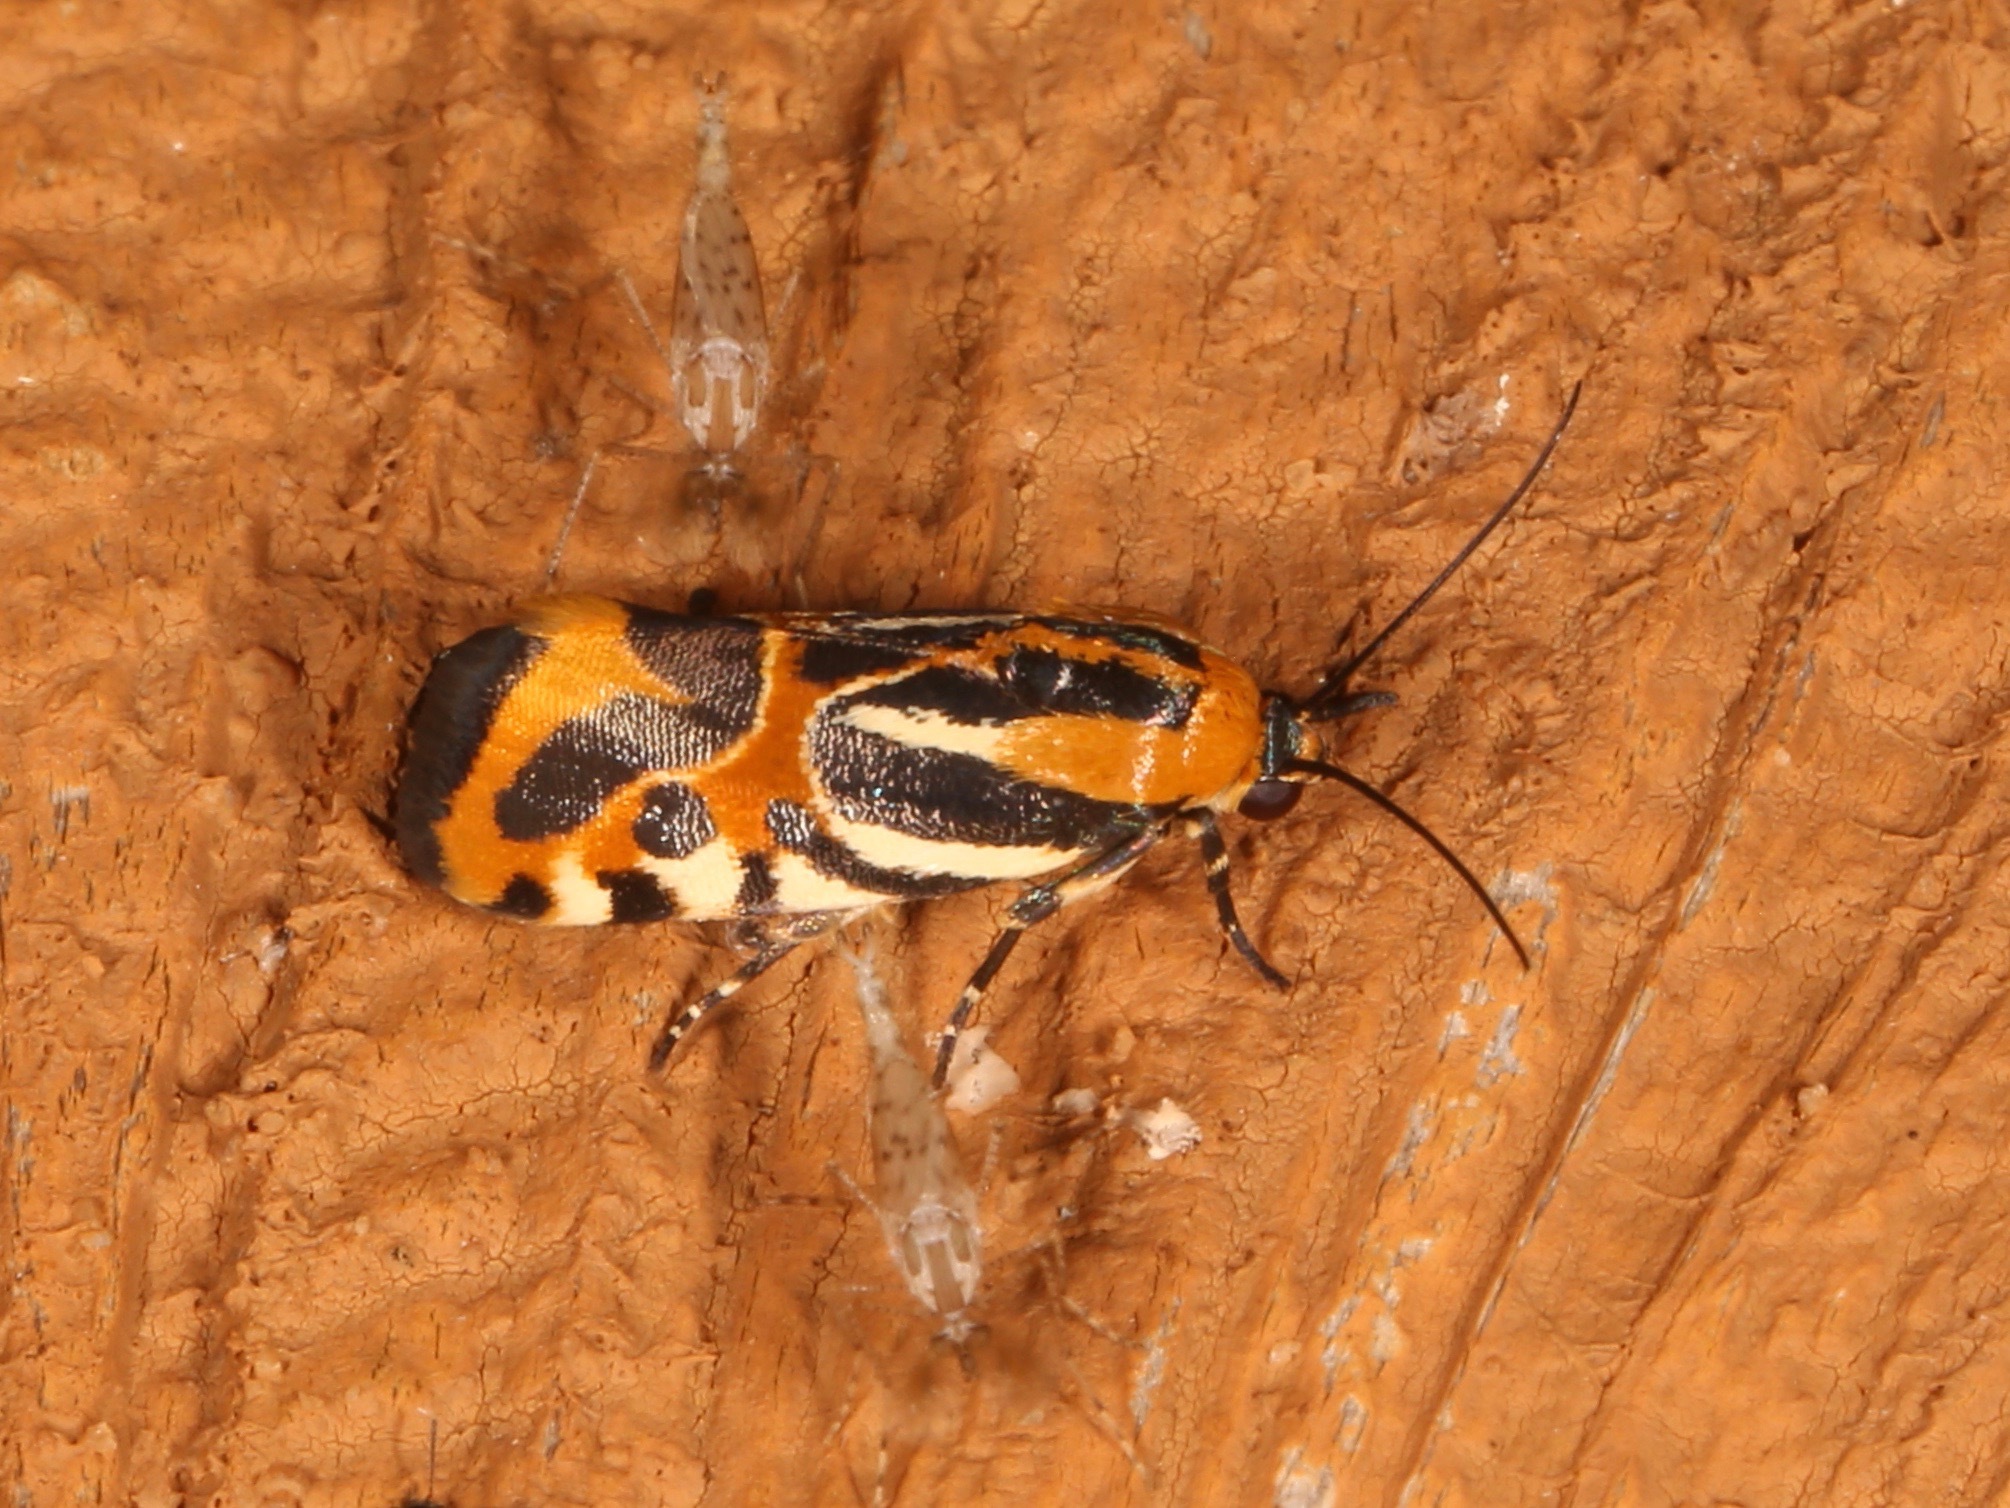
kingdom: Animalia
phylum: Arthropoda
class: Insecta
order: Lepidoptera
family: Noctuidae
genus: Acontia
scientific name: Acontia onagrus
